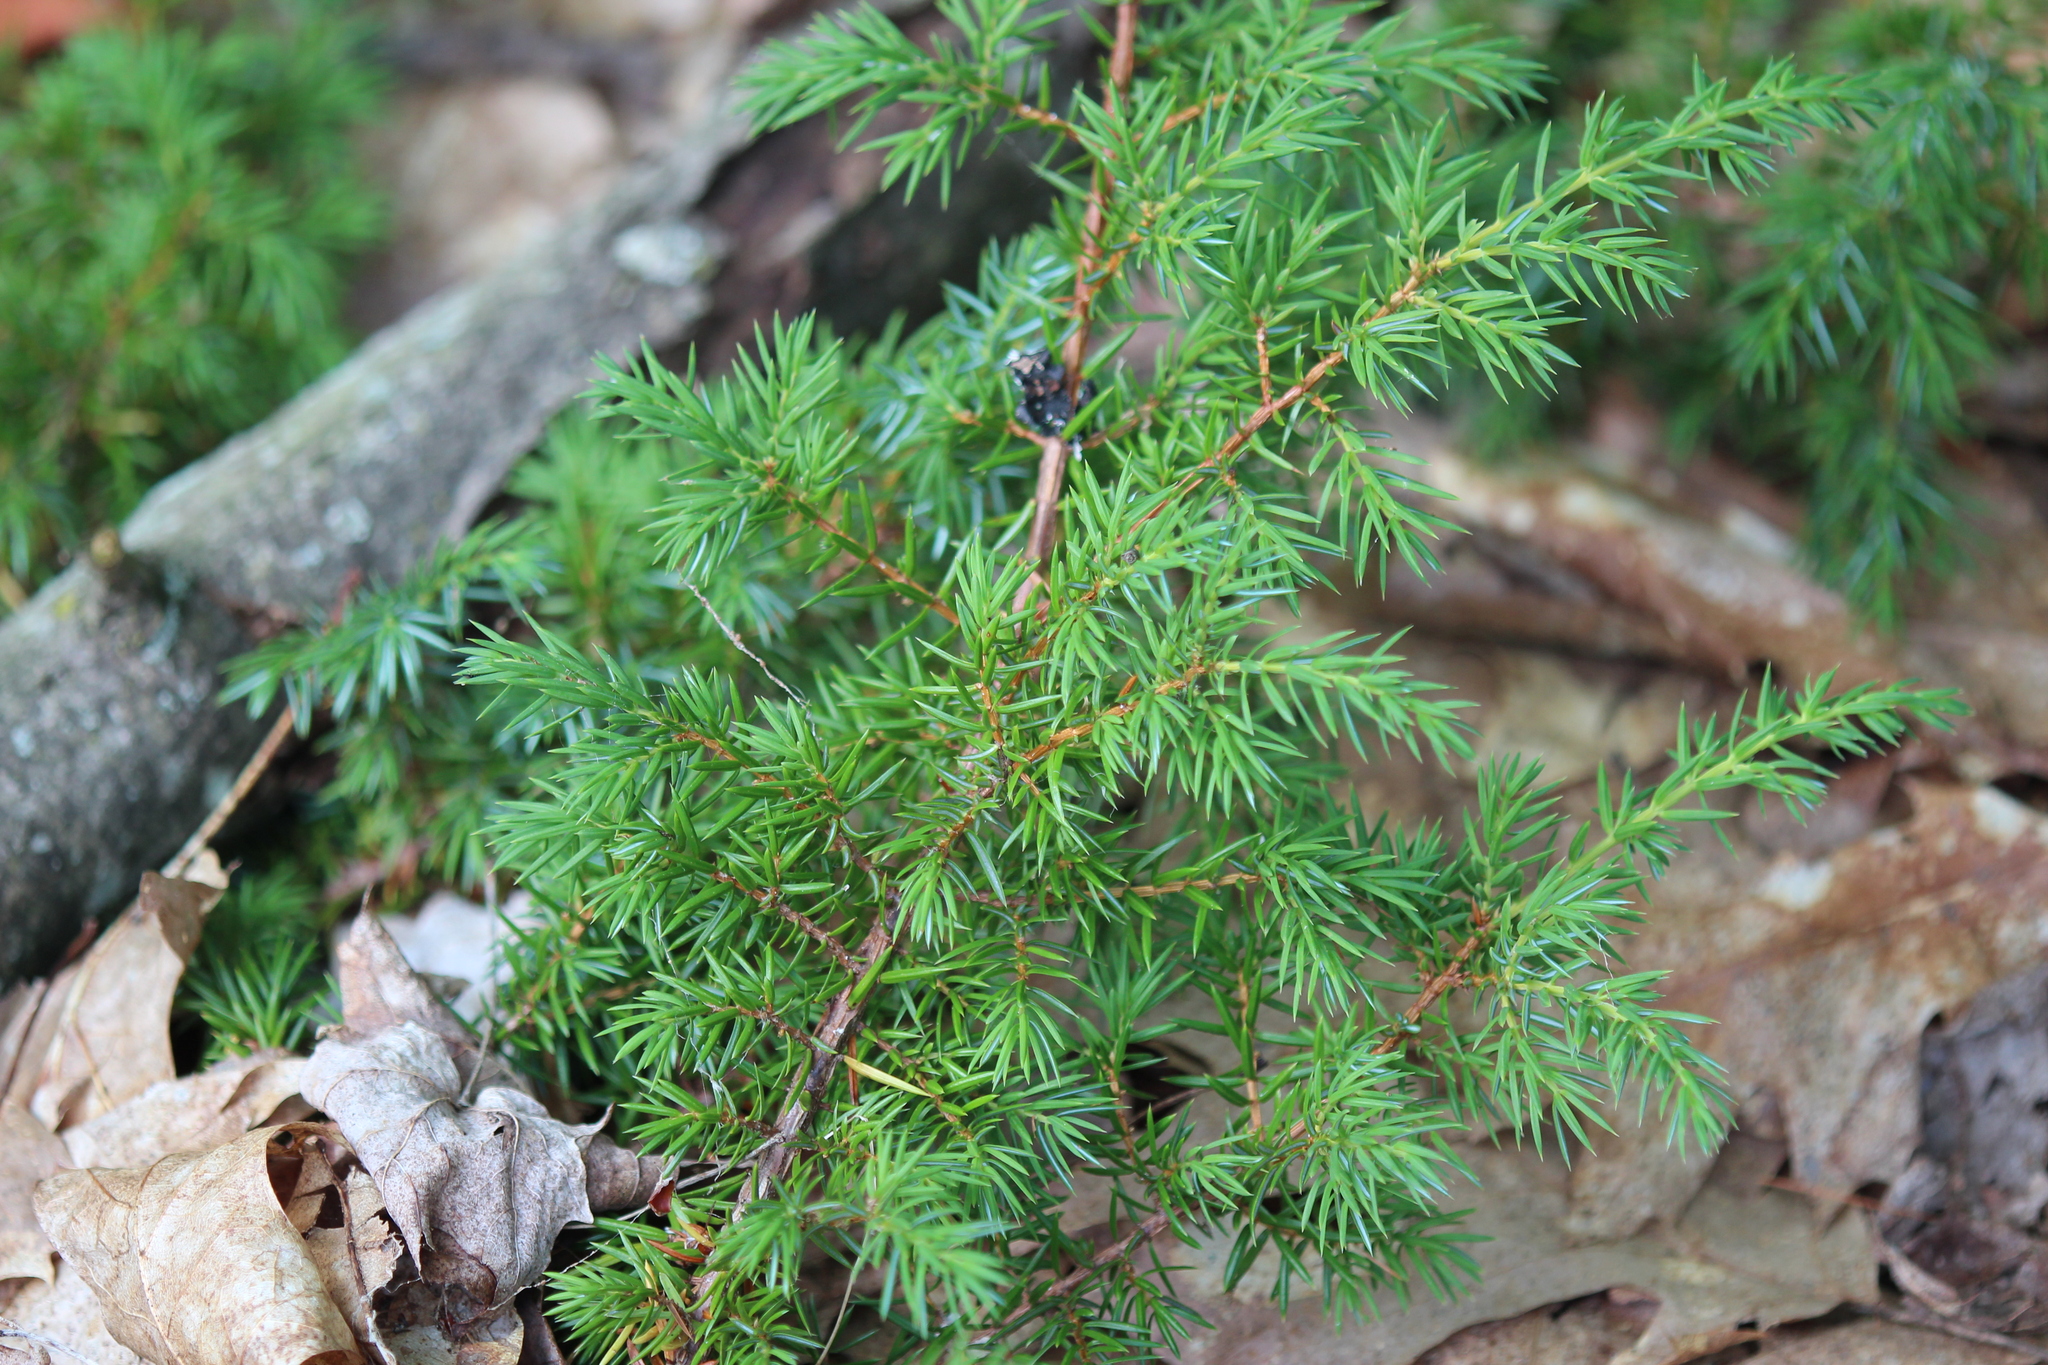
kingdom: Plantae
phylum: Tracheophyta
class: Pinopsida
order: Pinales
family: Cupressaceae
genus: Juniperus
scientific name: Juniperus communis
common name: Common juniper
